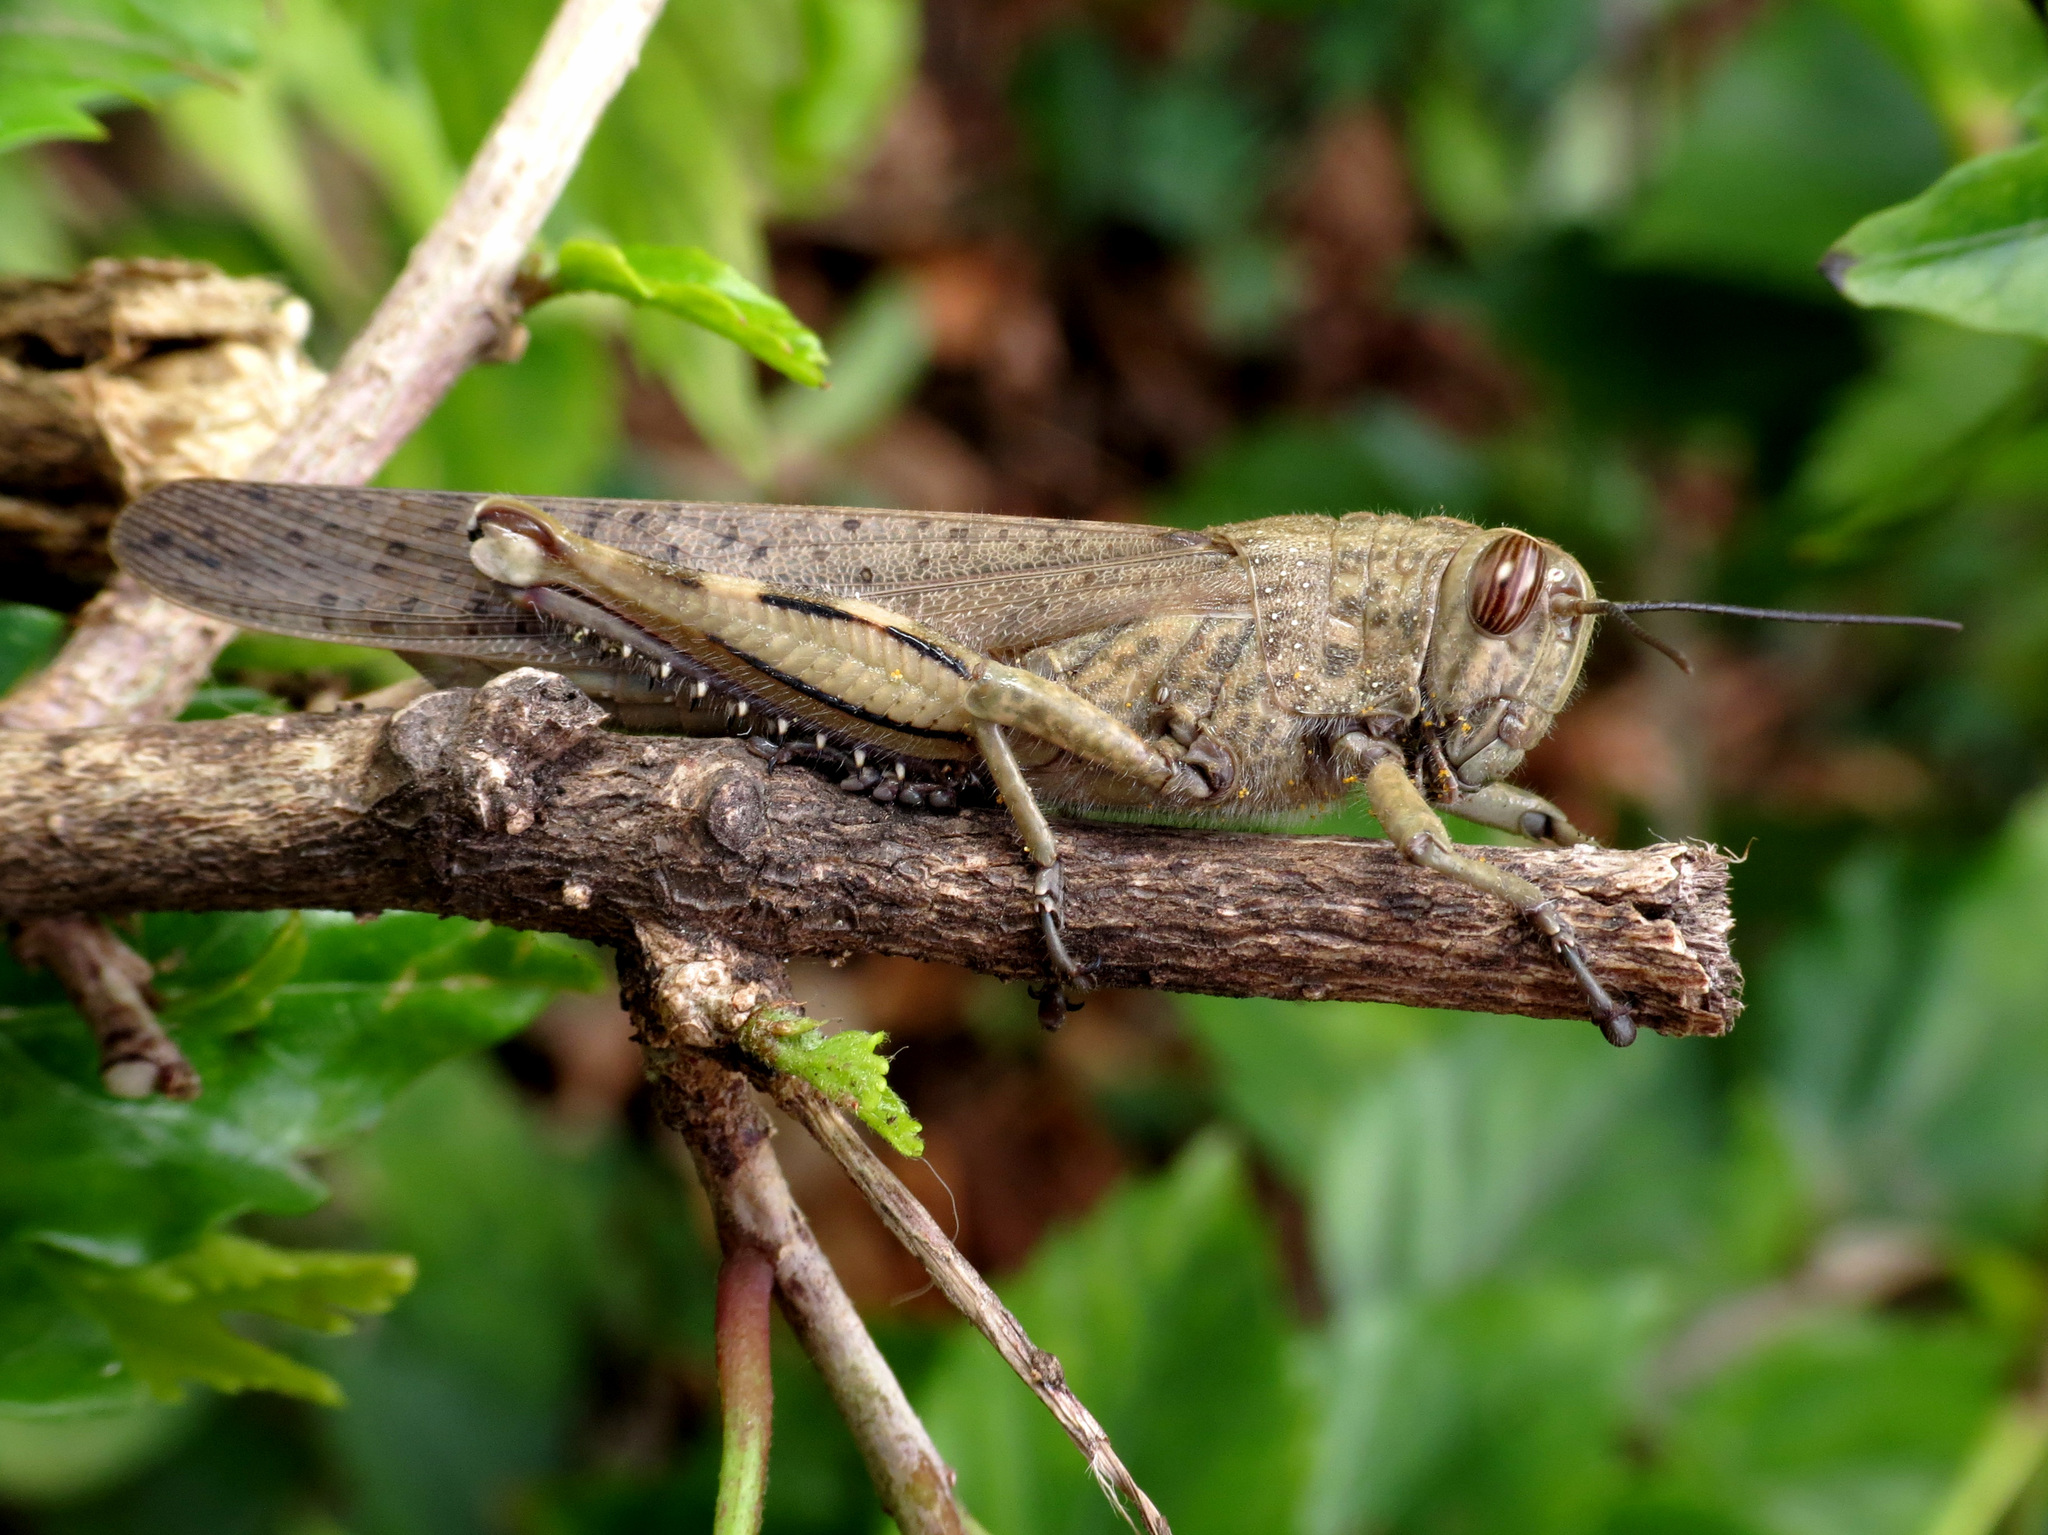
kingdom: Animalia
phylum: Arthropoda
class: Insecta
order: Orthoptera
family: Acrididae
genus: Anacridium
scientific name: Anacridium aegyptium
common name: Egyptian grasshopper
